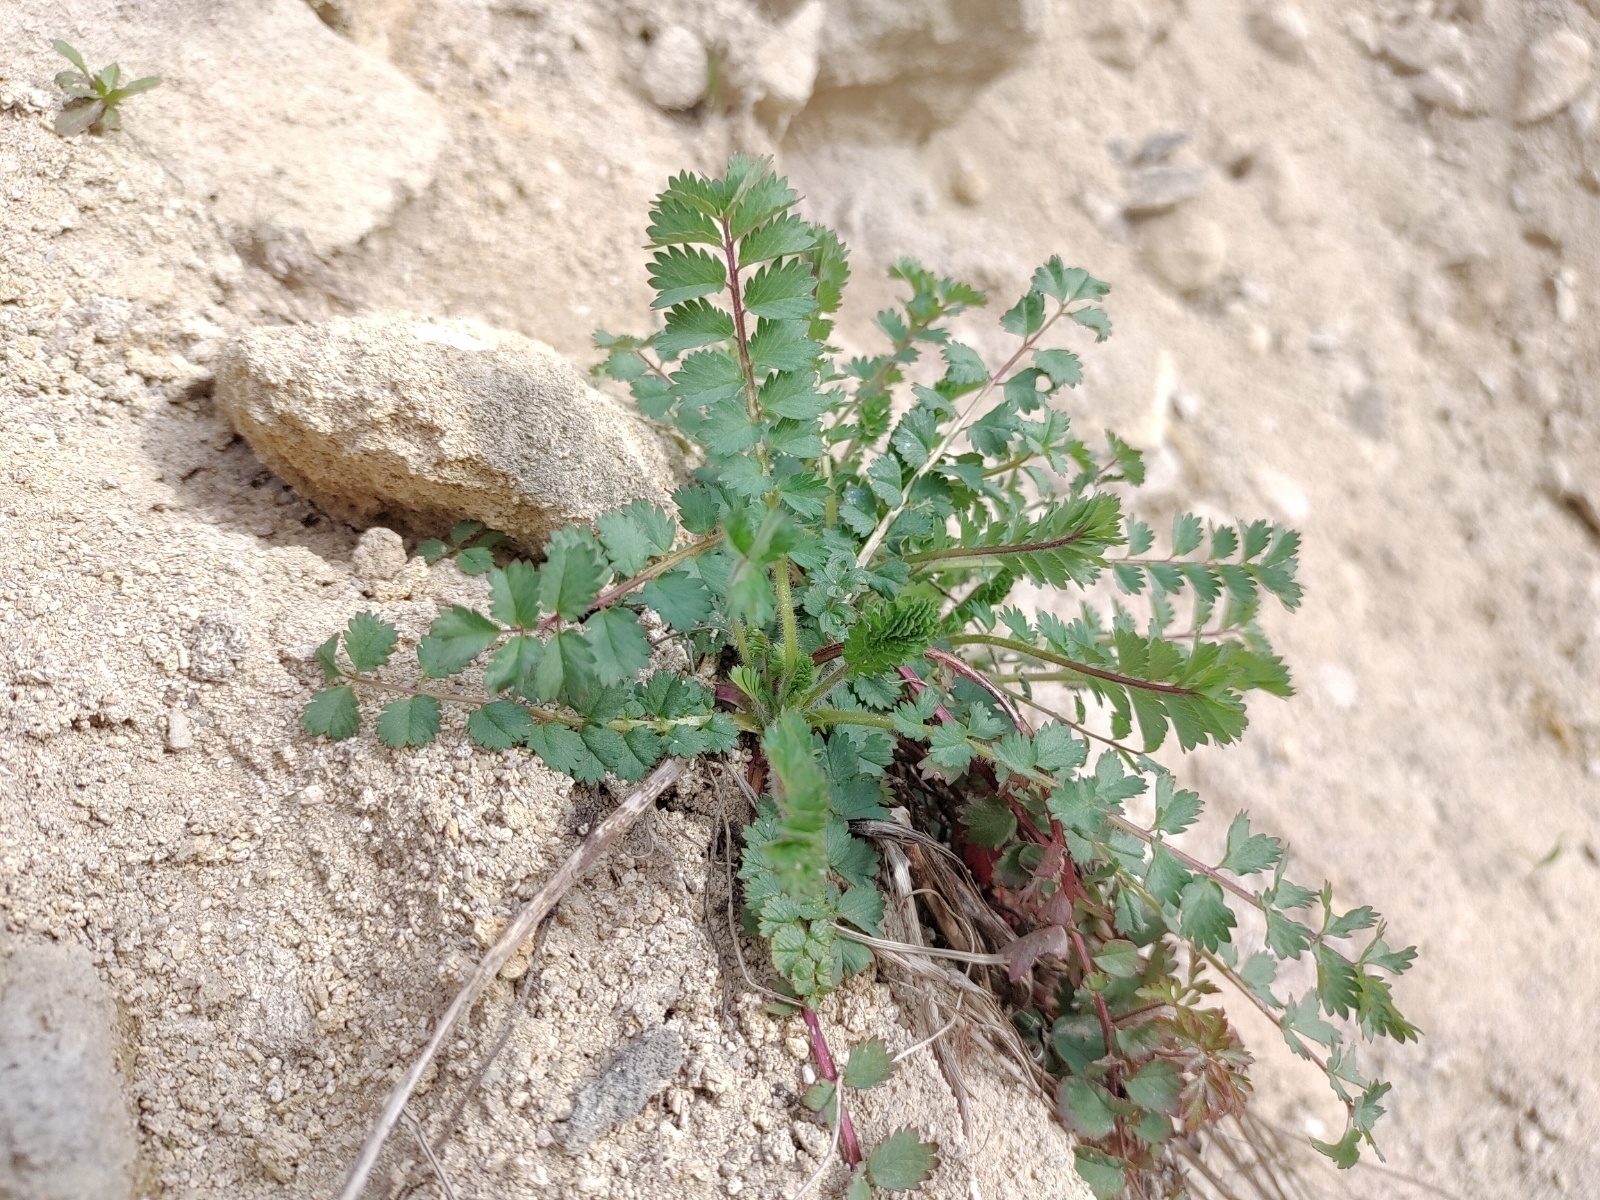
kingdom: Plantae
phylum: Tracheophyta
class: Magnoliopsida
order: Rosales
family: Rosaceae
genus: Poterium
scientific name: Poterium sanguisorba
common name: Salad burnet
